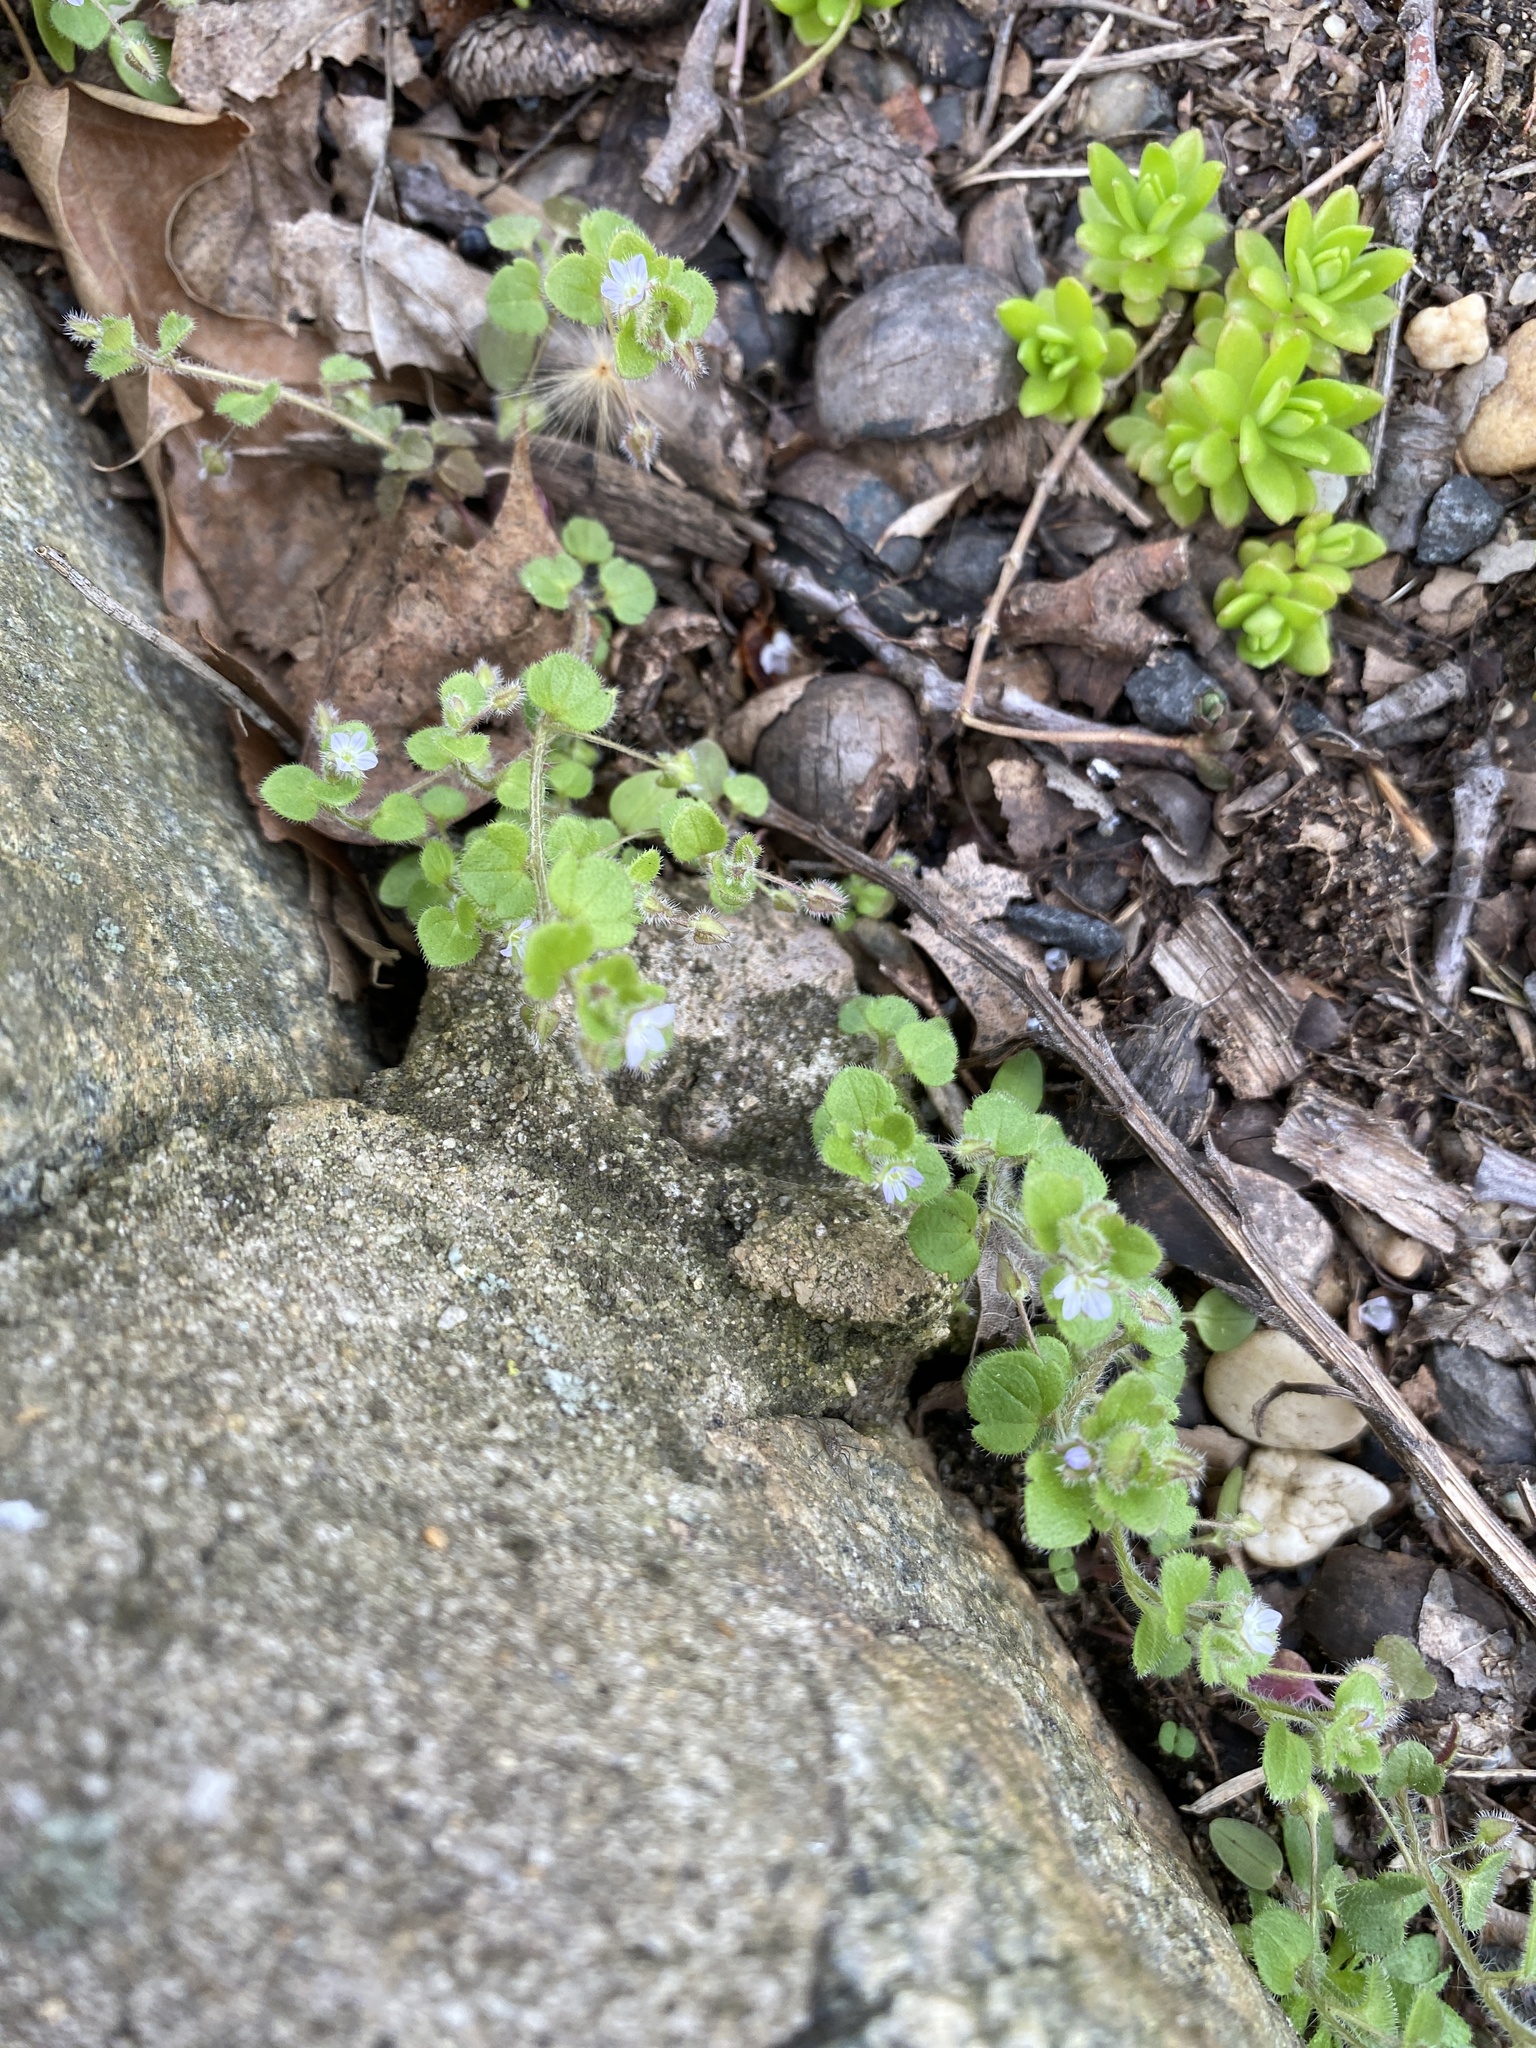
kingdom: Plantae
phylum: Tracheophyta
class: Magnoliopsida
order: Lamiales
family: Plantaginaceae
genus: Veronica
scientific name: Veronica sublobata
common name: False ivy-leaved speedwell
